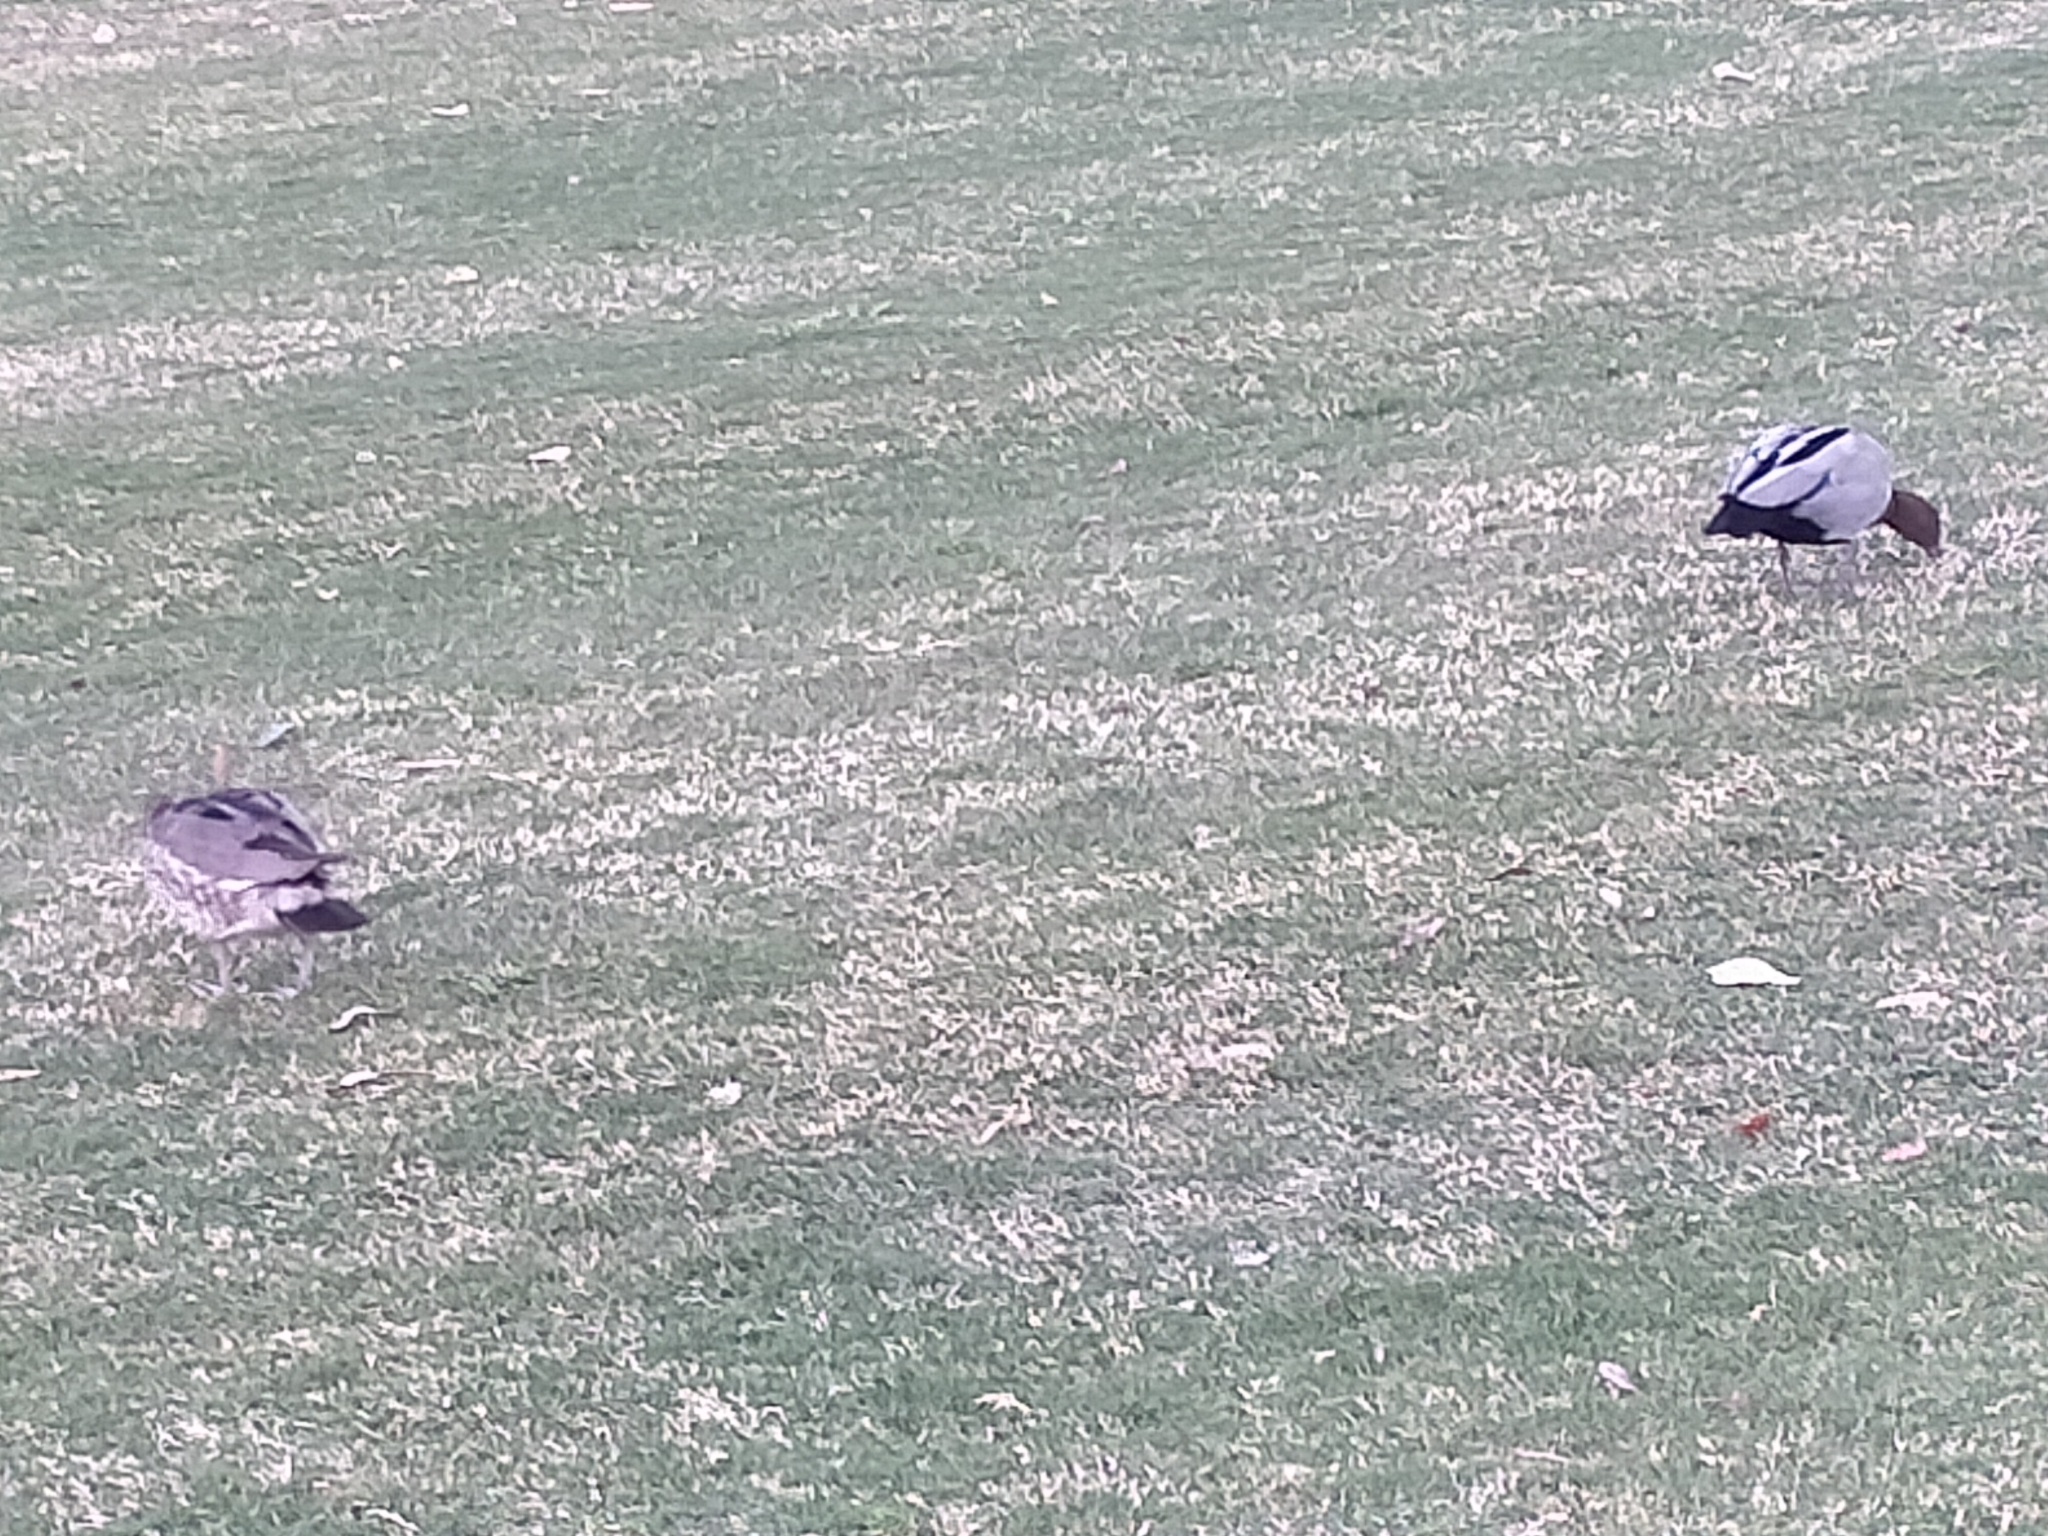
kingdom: Animalia
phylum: Chordata
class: Aves
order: Anseriformes
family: Anatidae
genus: Chenonetta
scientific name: Chenonetta jubata
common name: Maned duck
